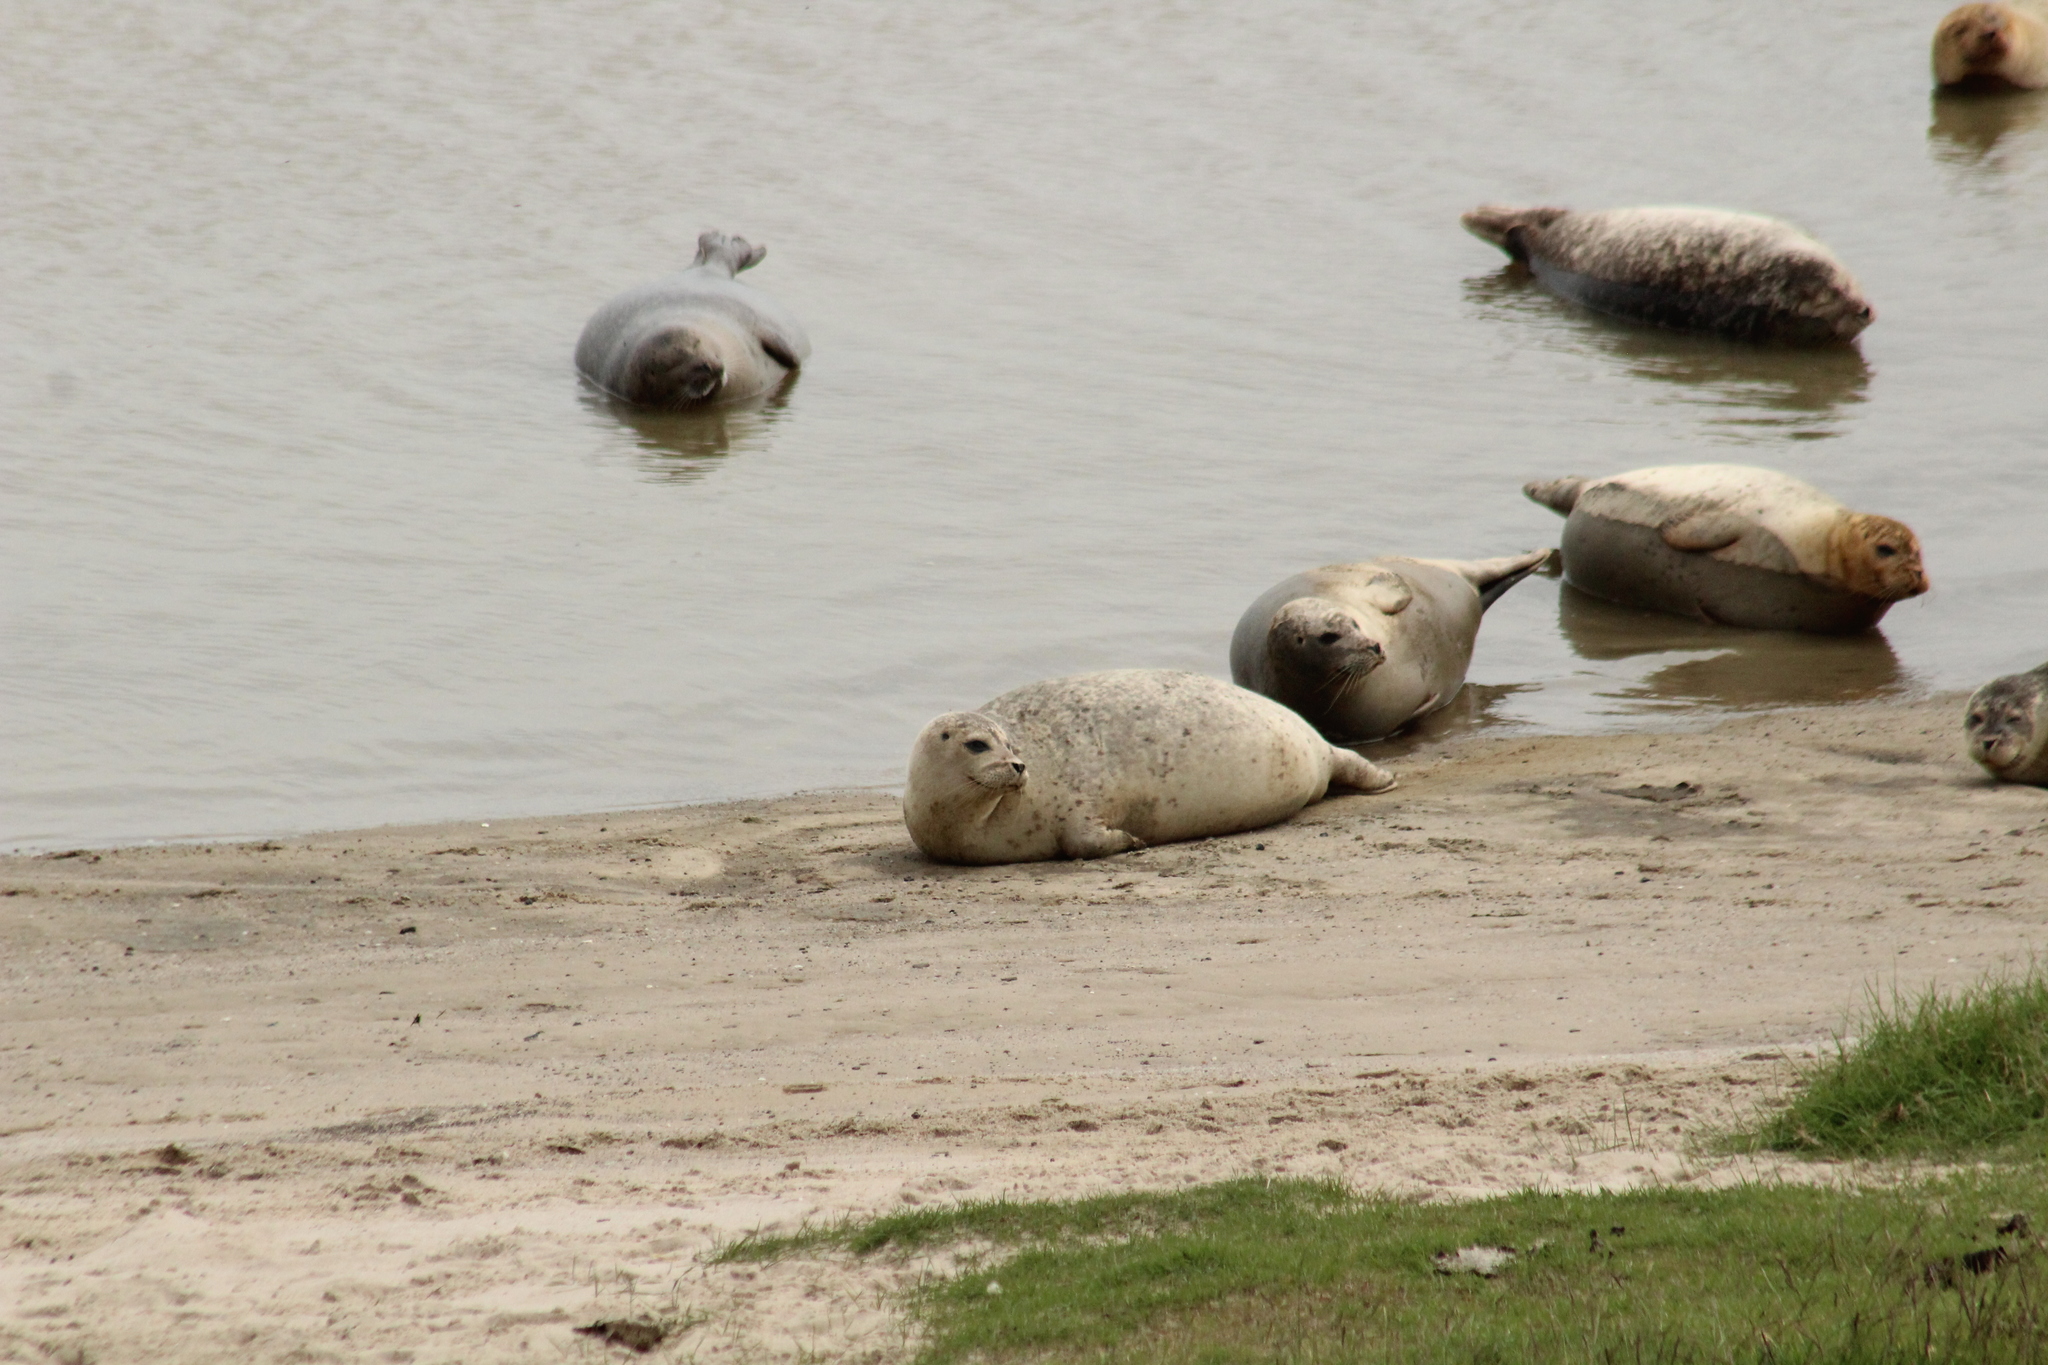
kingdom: Animalia
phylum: Chordata
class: Mammalia
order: Carnivora
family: Phocidae
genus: Phoca
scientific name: Phoca vitulina
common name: Harbor seal
